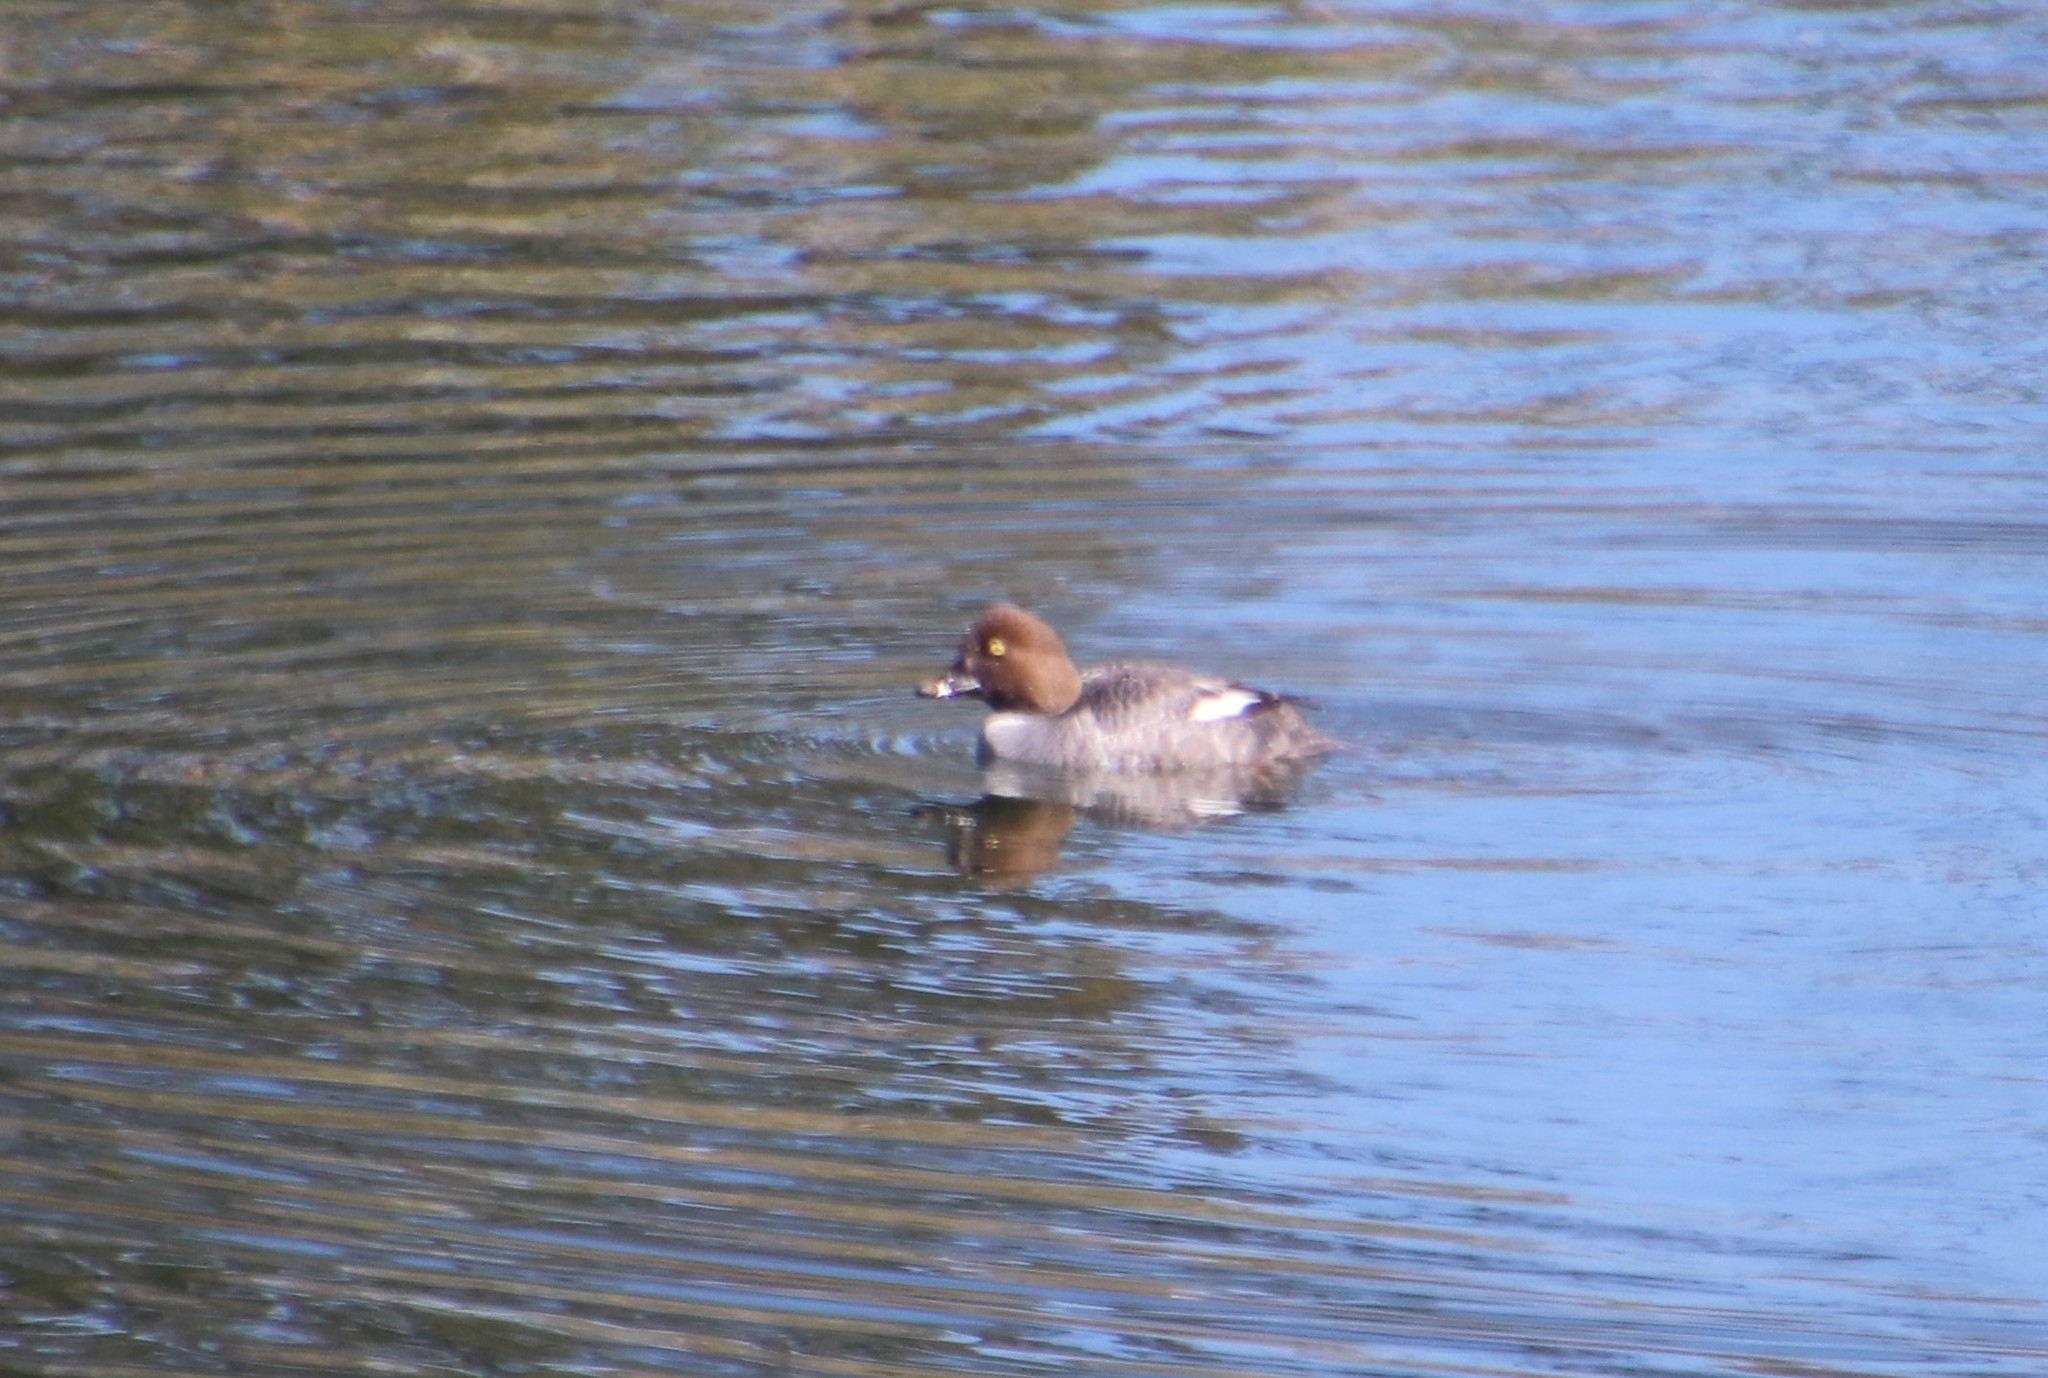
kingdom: Animalia
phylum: Chordata
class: Aves
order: Anseriformes
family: Anatidae
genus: Bucephala
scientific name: Bucephala clangula
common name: Common goldeneye
